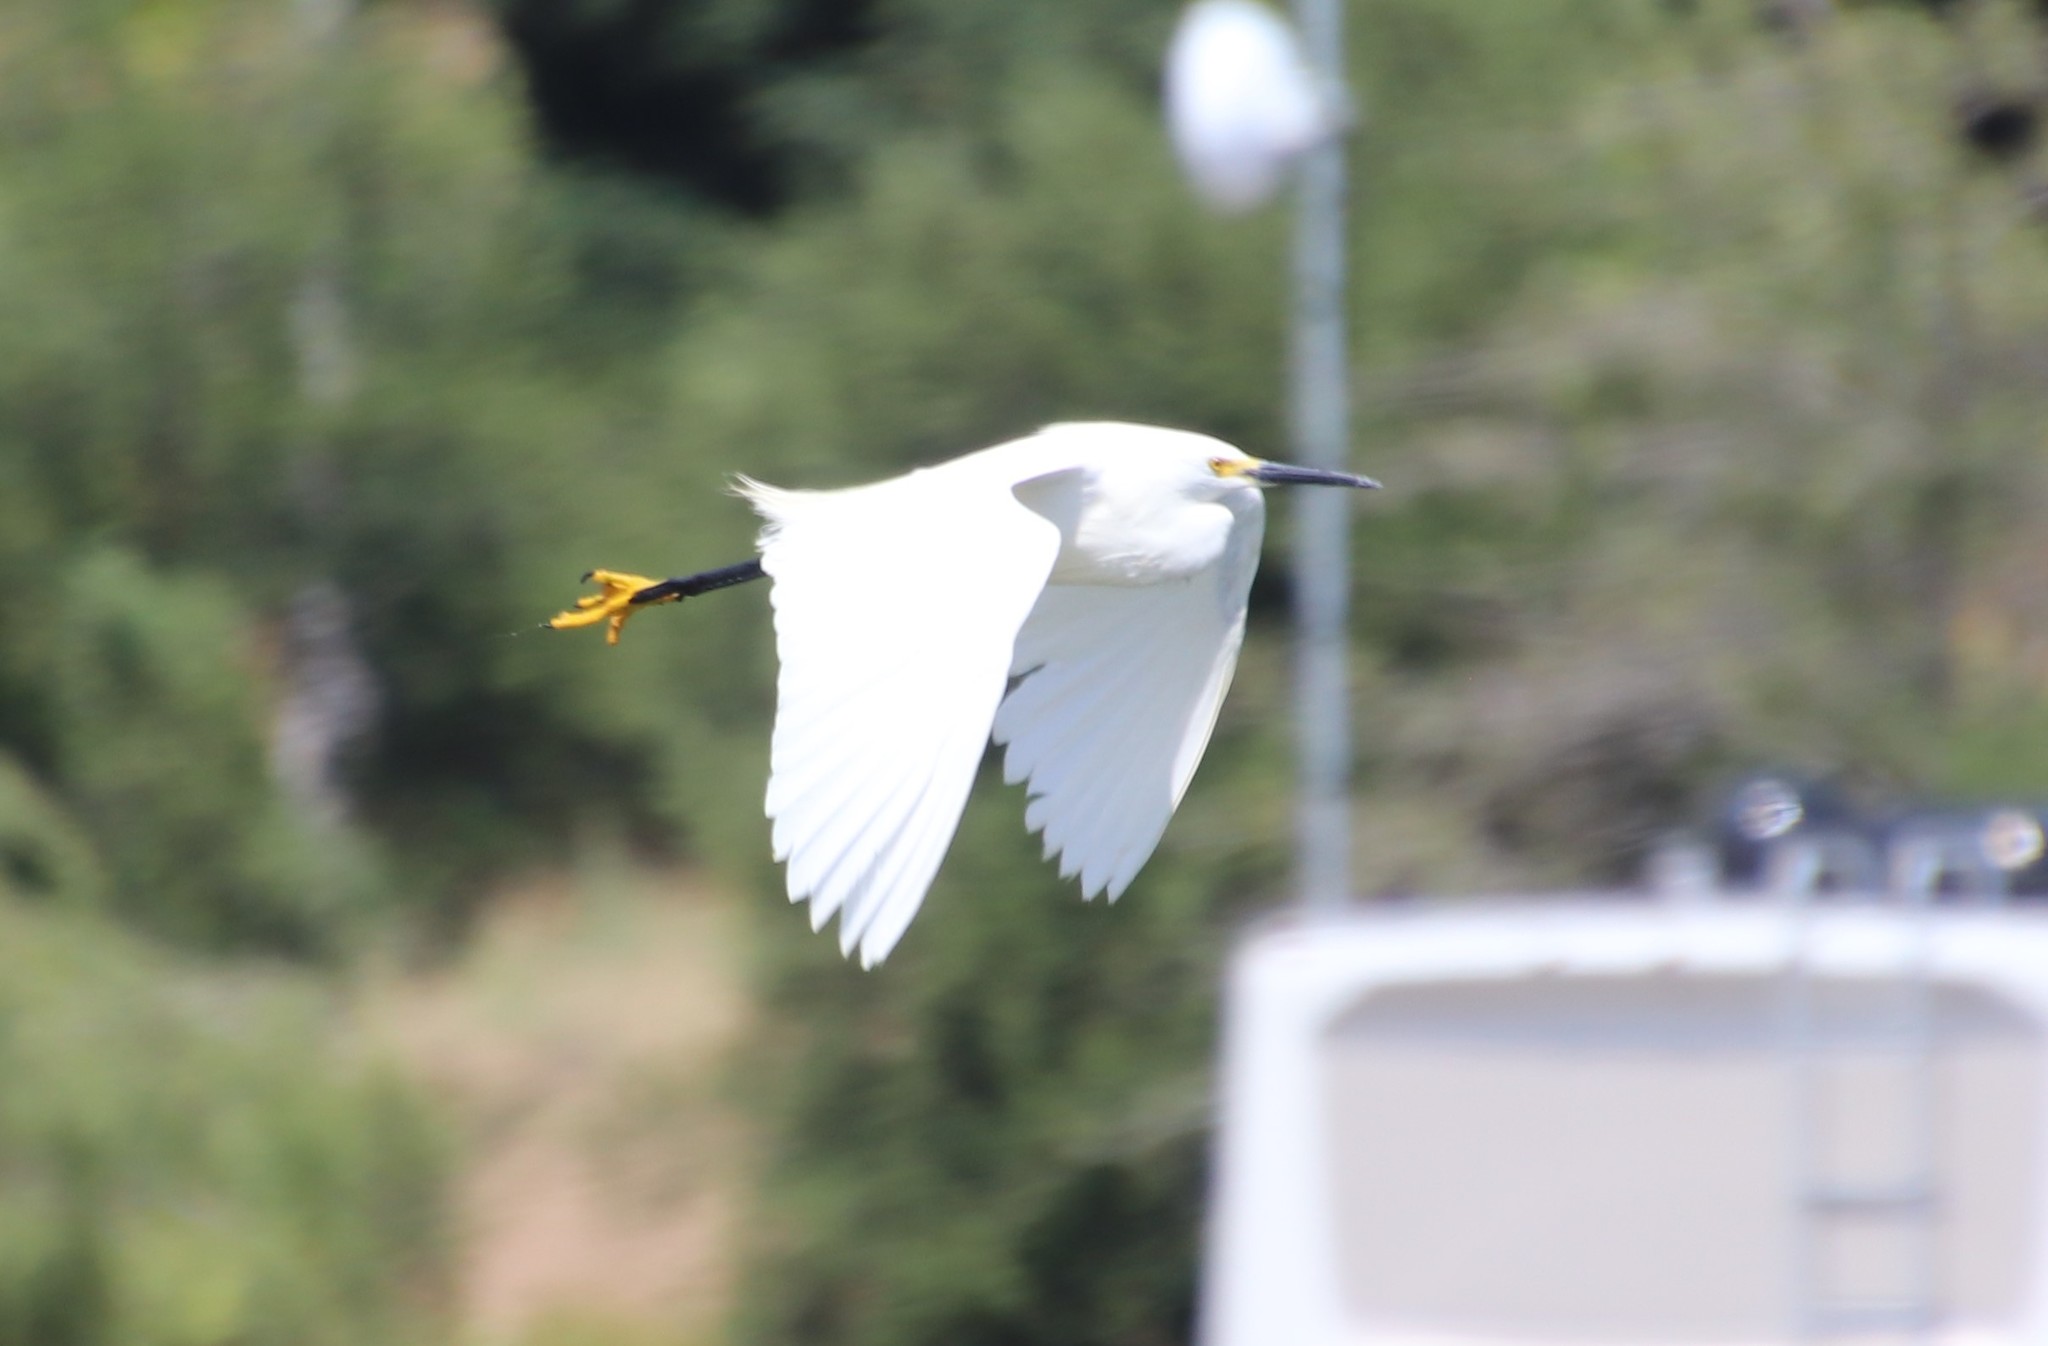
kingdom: Animalia
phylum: Chordata
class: Aves
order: Pelecaniformes
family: Ardeidae
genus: Egretta
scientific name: Egretta thula
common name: Snowy egret
